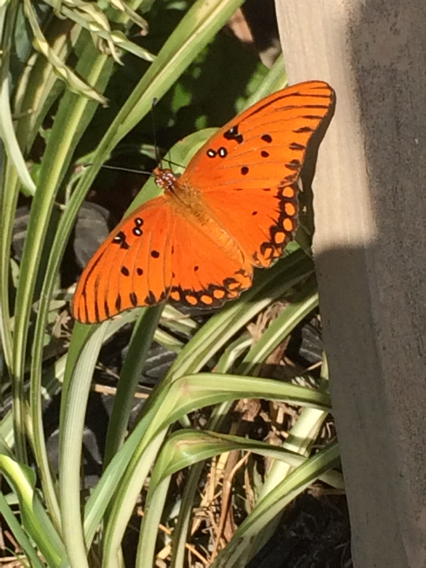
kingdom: Animalia
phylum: Arthropoda
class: Insecta
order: Lepidoptera
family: Nymphalidae
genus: Dione
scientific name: Dione vanillae
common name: Gulf fritillary
